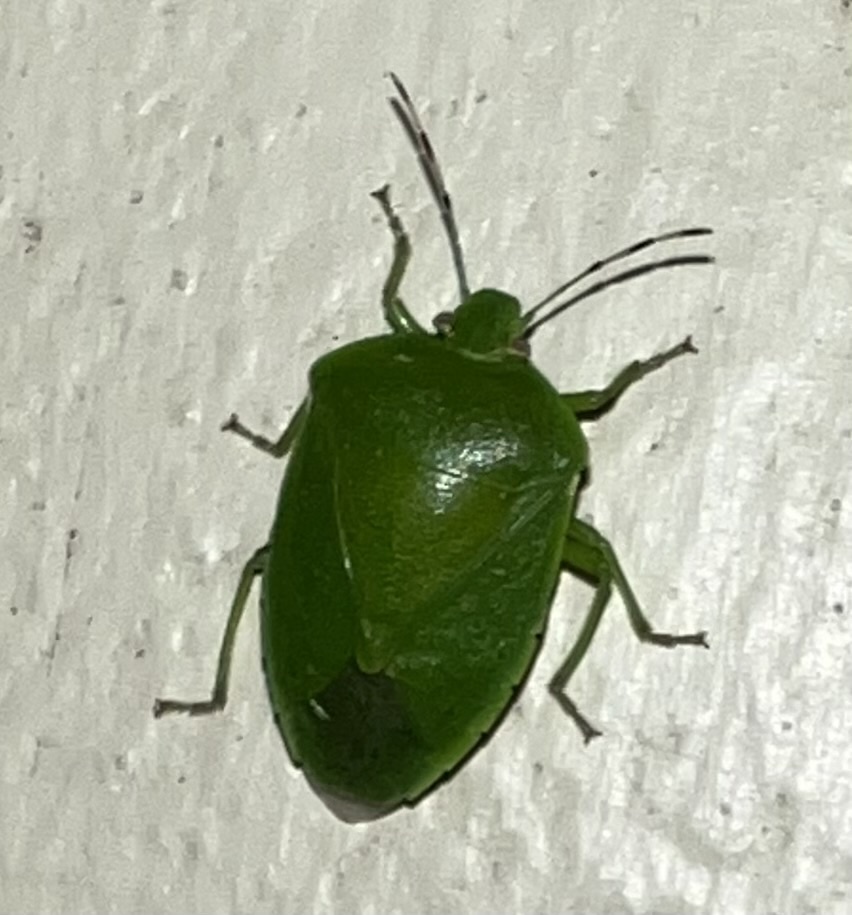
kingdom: Animalia
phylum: Arthropoda
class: Insecta
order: Hemiptera
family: Pentatomidae
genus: Chinavia
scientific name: Chinavia hilaris
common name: Green stink bug
